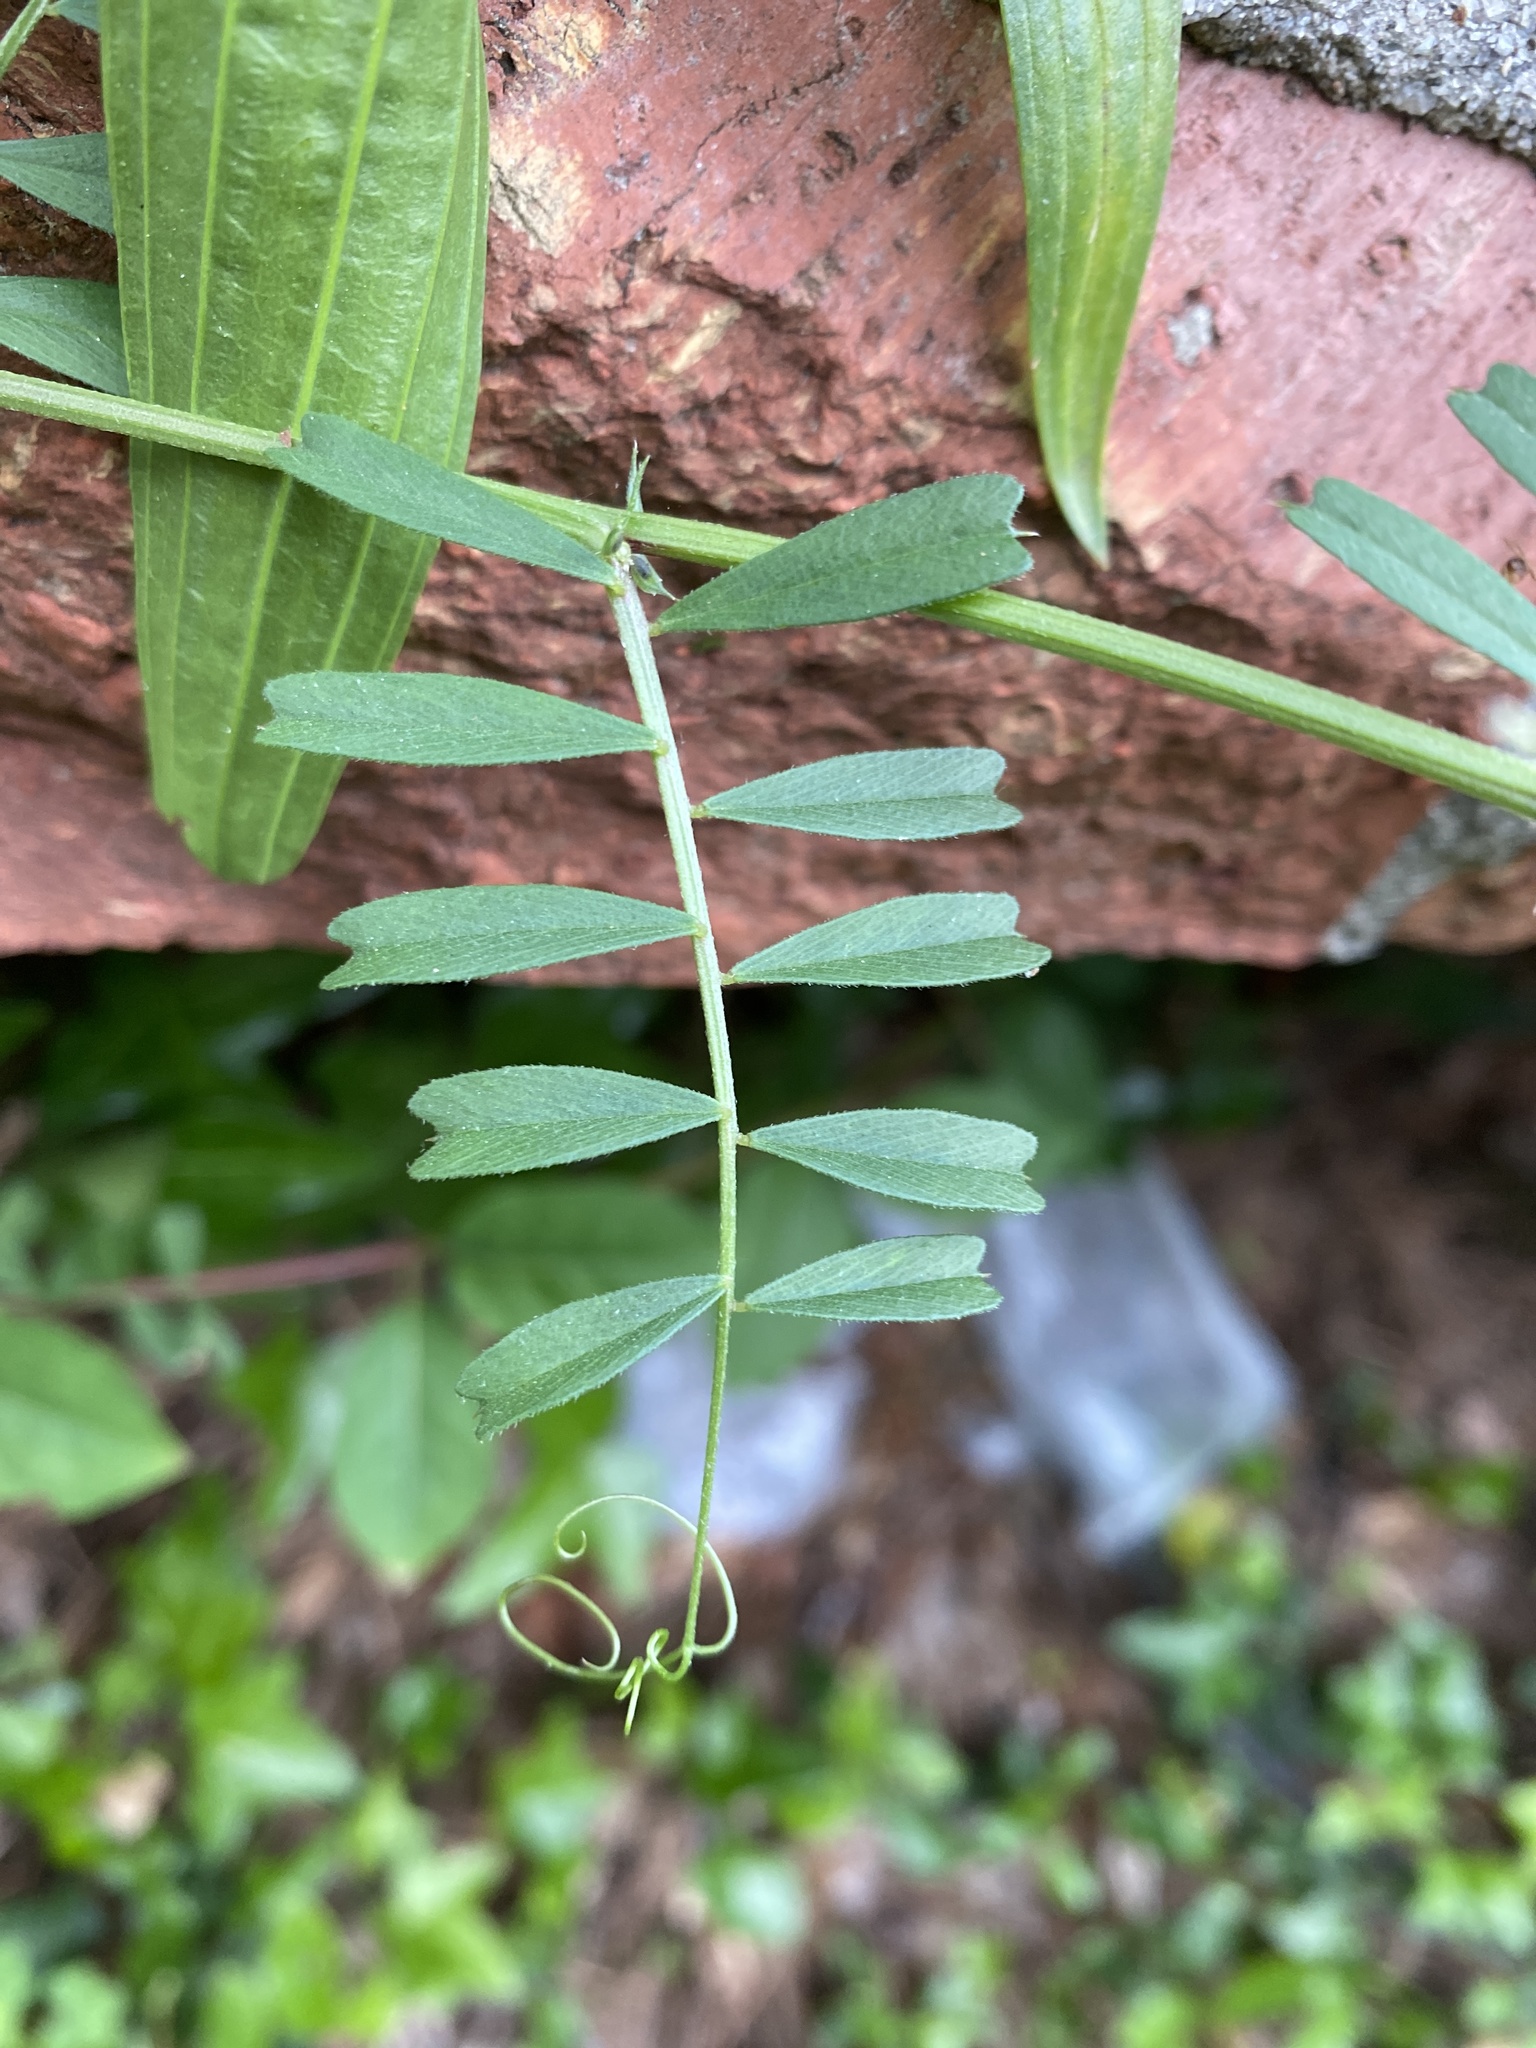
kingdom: Plantae
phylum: Tracheophyta
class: Magnoliopsida
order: Fabales
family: Fabaceae
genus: Vicia
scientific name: Vicia sativa
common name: Garden vetch
